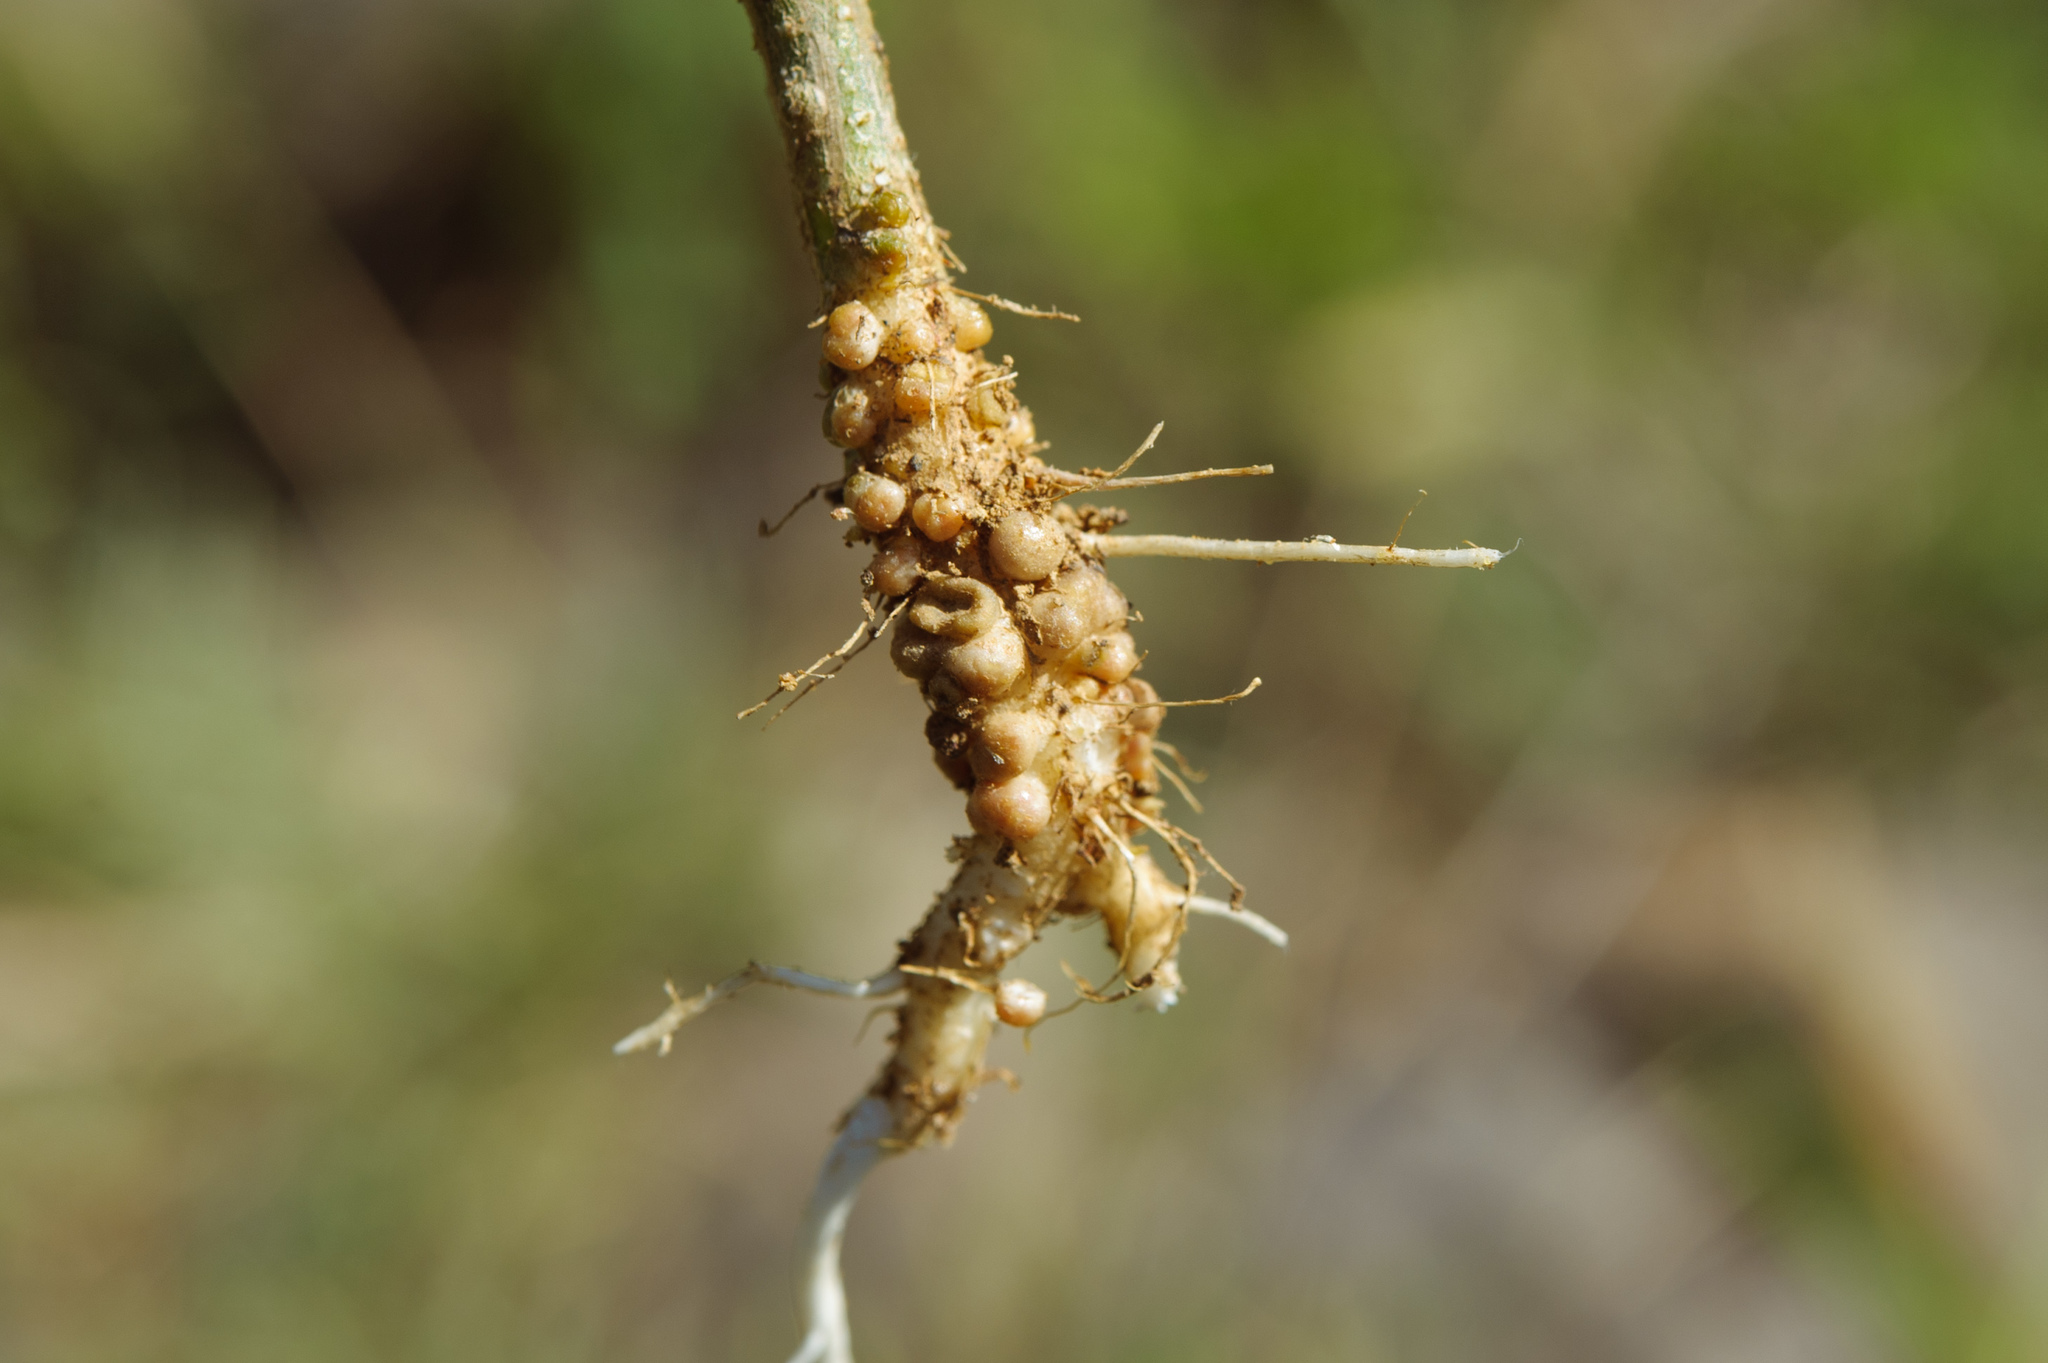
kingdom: Plantae
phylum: Tracheophyta
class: Magnoliopsida
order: Fabales
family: Fabaceae
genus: Aeschynomene
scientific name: Aeschynomene indica
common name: Indian jointvetch
